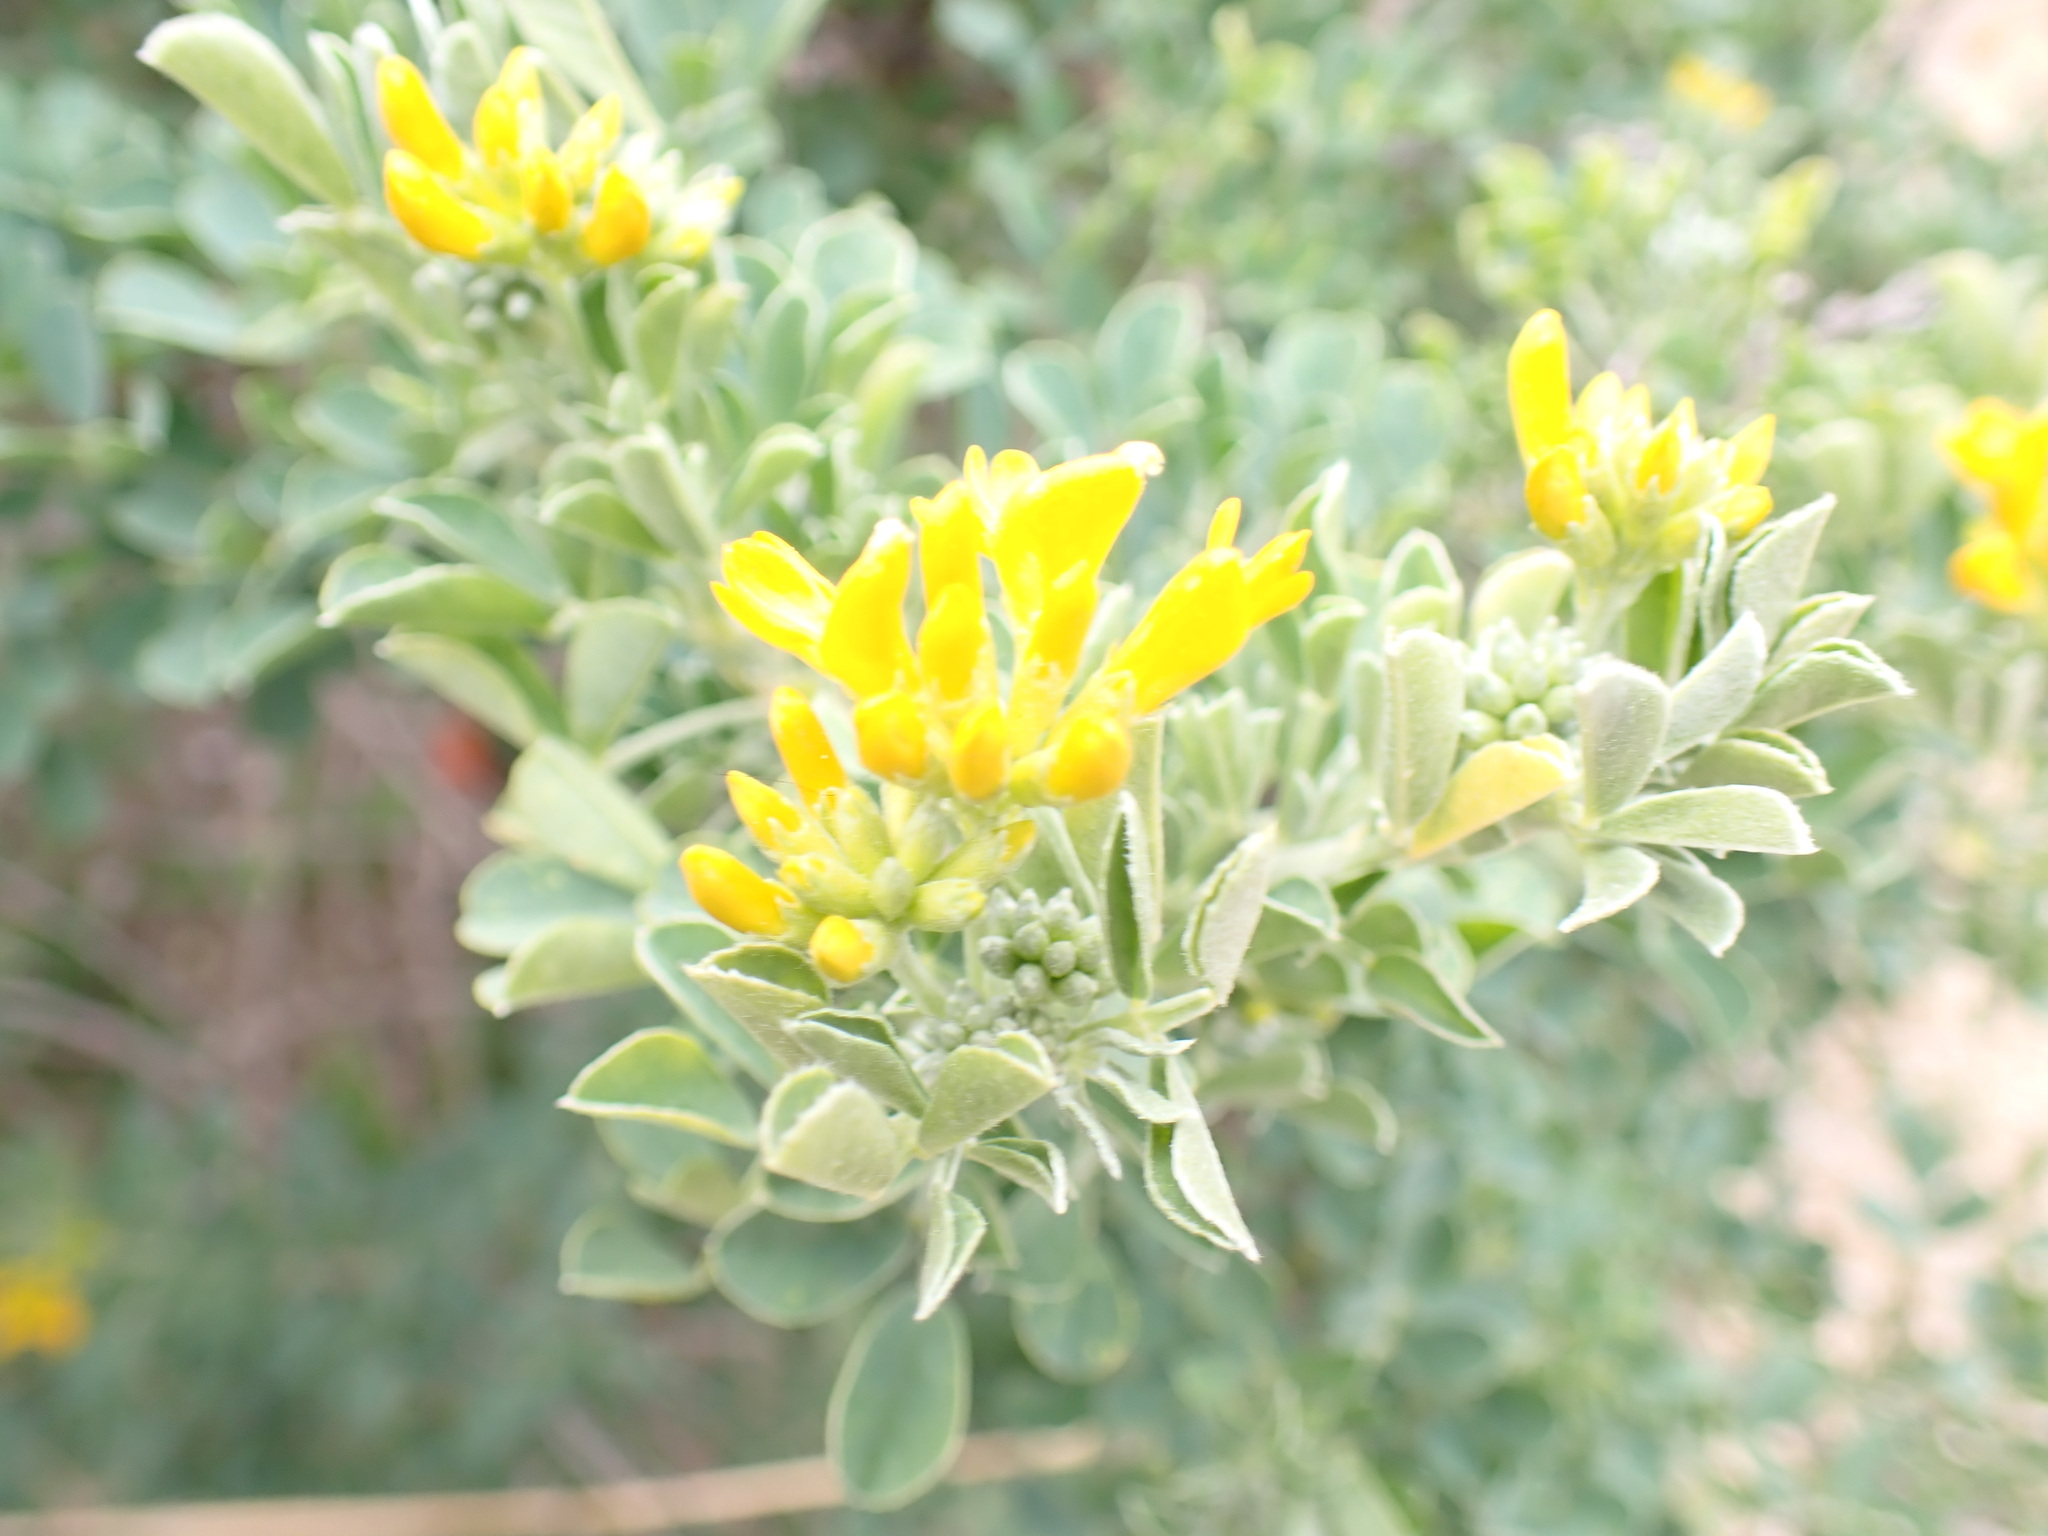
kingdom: Plantae
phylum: Tracheophyta
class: Magnoliopsida
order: Fabales
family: Fabaceae
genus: Medicago
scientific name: Medicago arborea
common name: Moon trefoil
